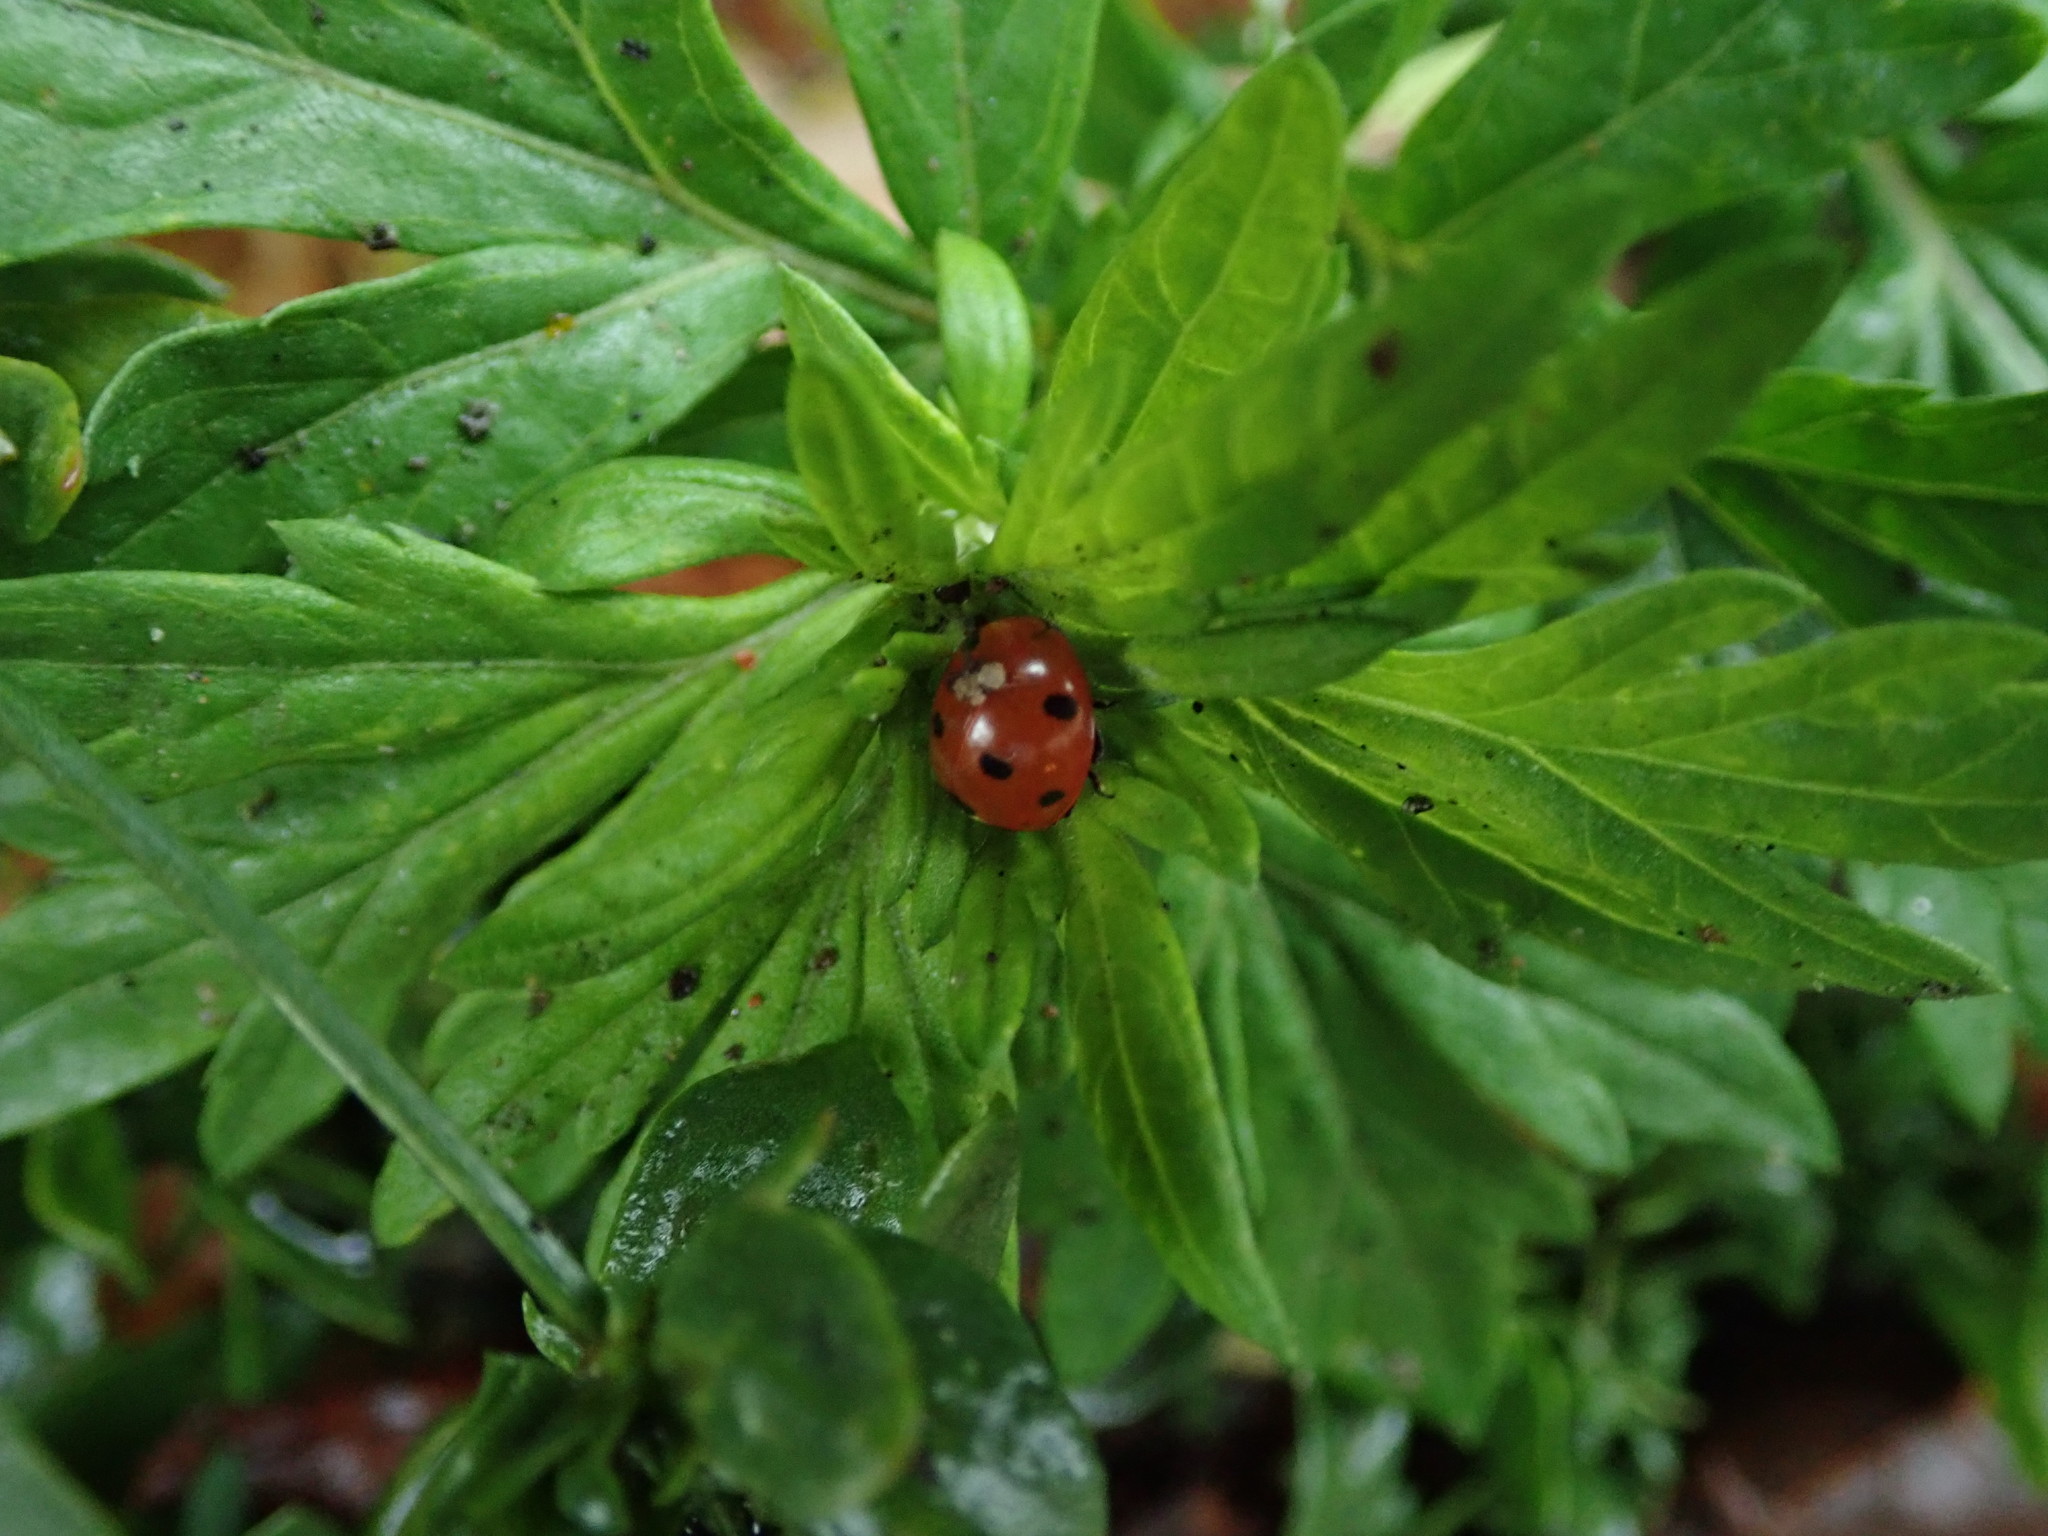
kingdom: Animalia
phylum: Arthropoda
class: Insecta
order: Coleoptera
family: Coccinellidae
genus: Coccinella
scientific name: Coccinella septempunctata
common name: Sevenspotted lady beetle
